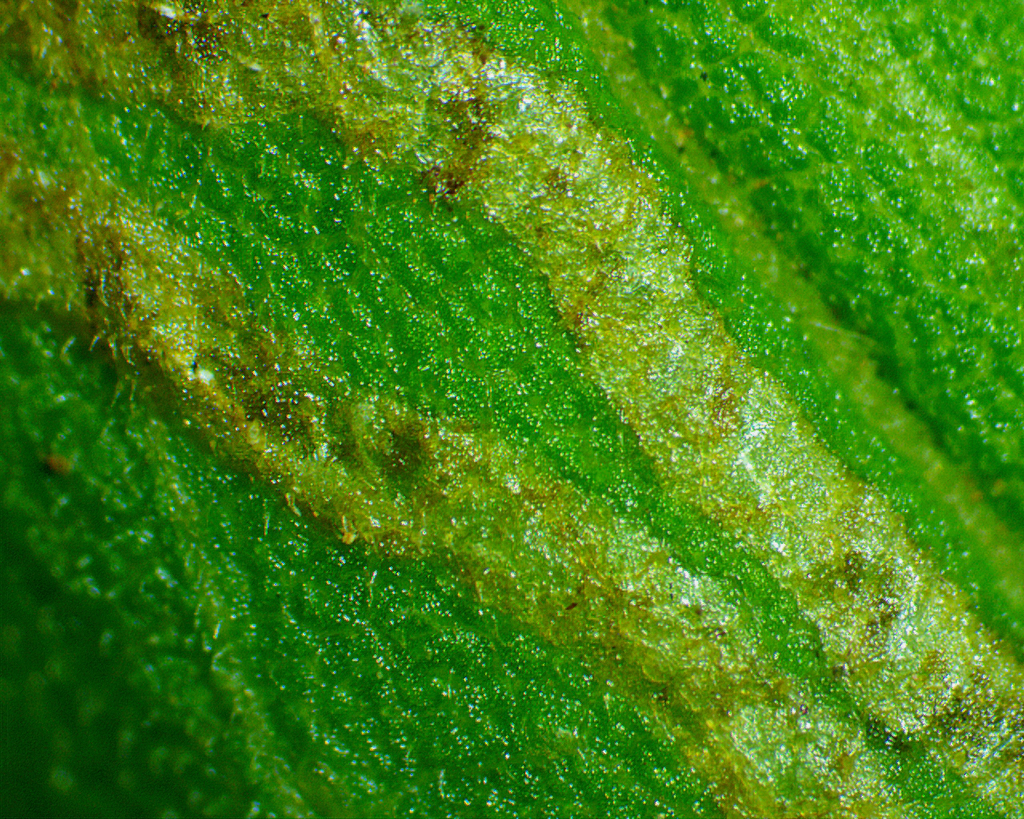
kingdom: Animalia
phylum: Arthropoda
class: Insecta
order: Diptera
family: Agromyzidae
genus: Ophiomyia
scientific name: Ophiomyia maura
